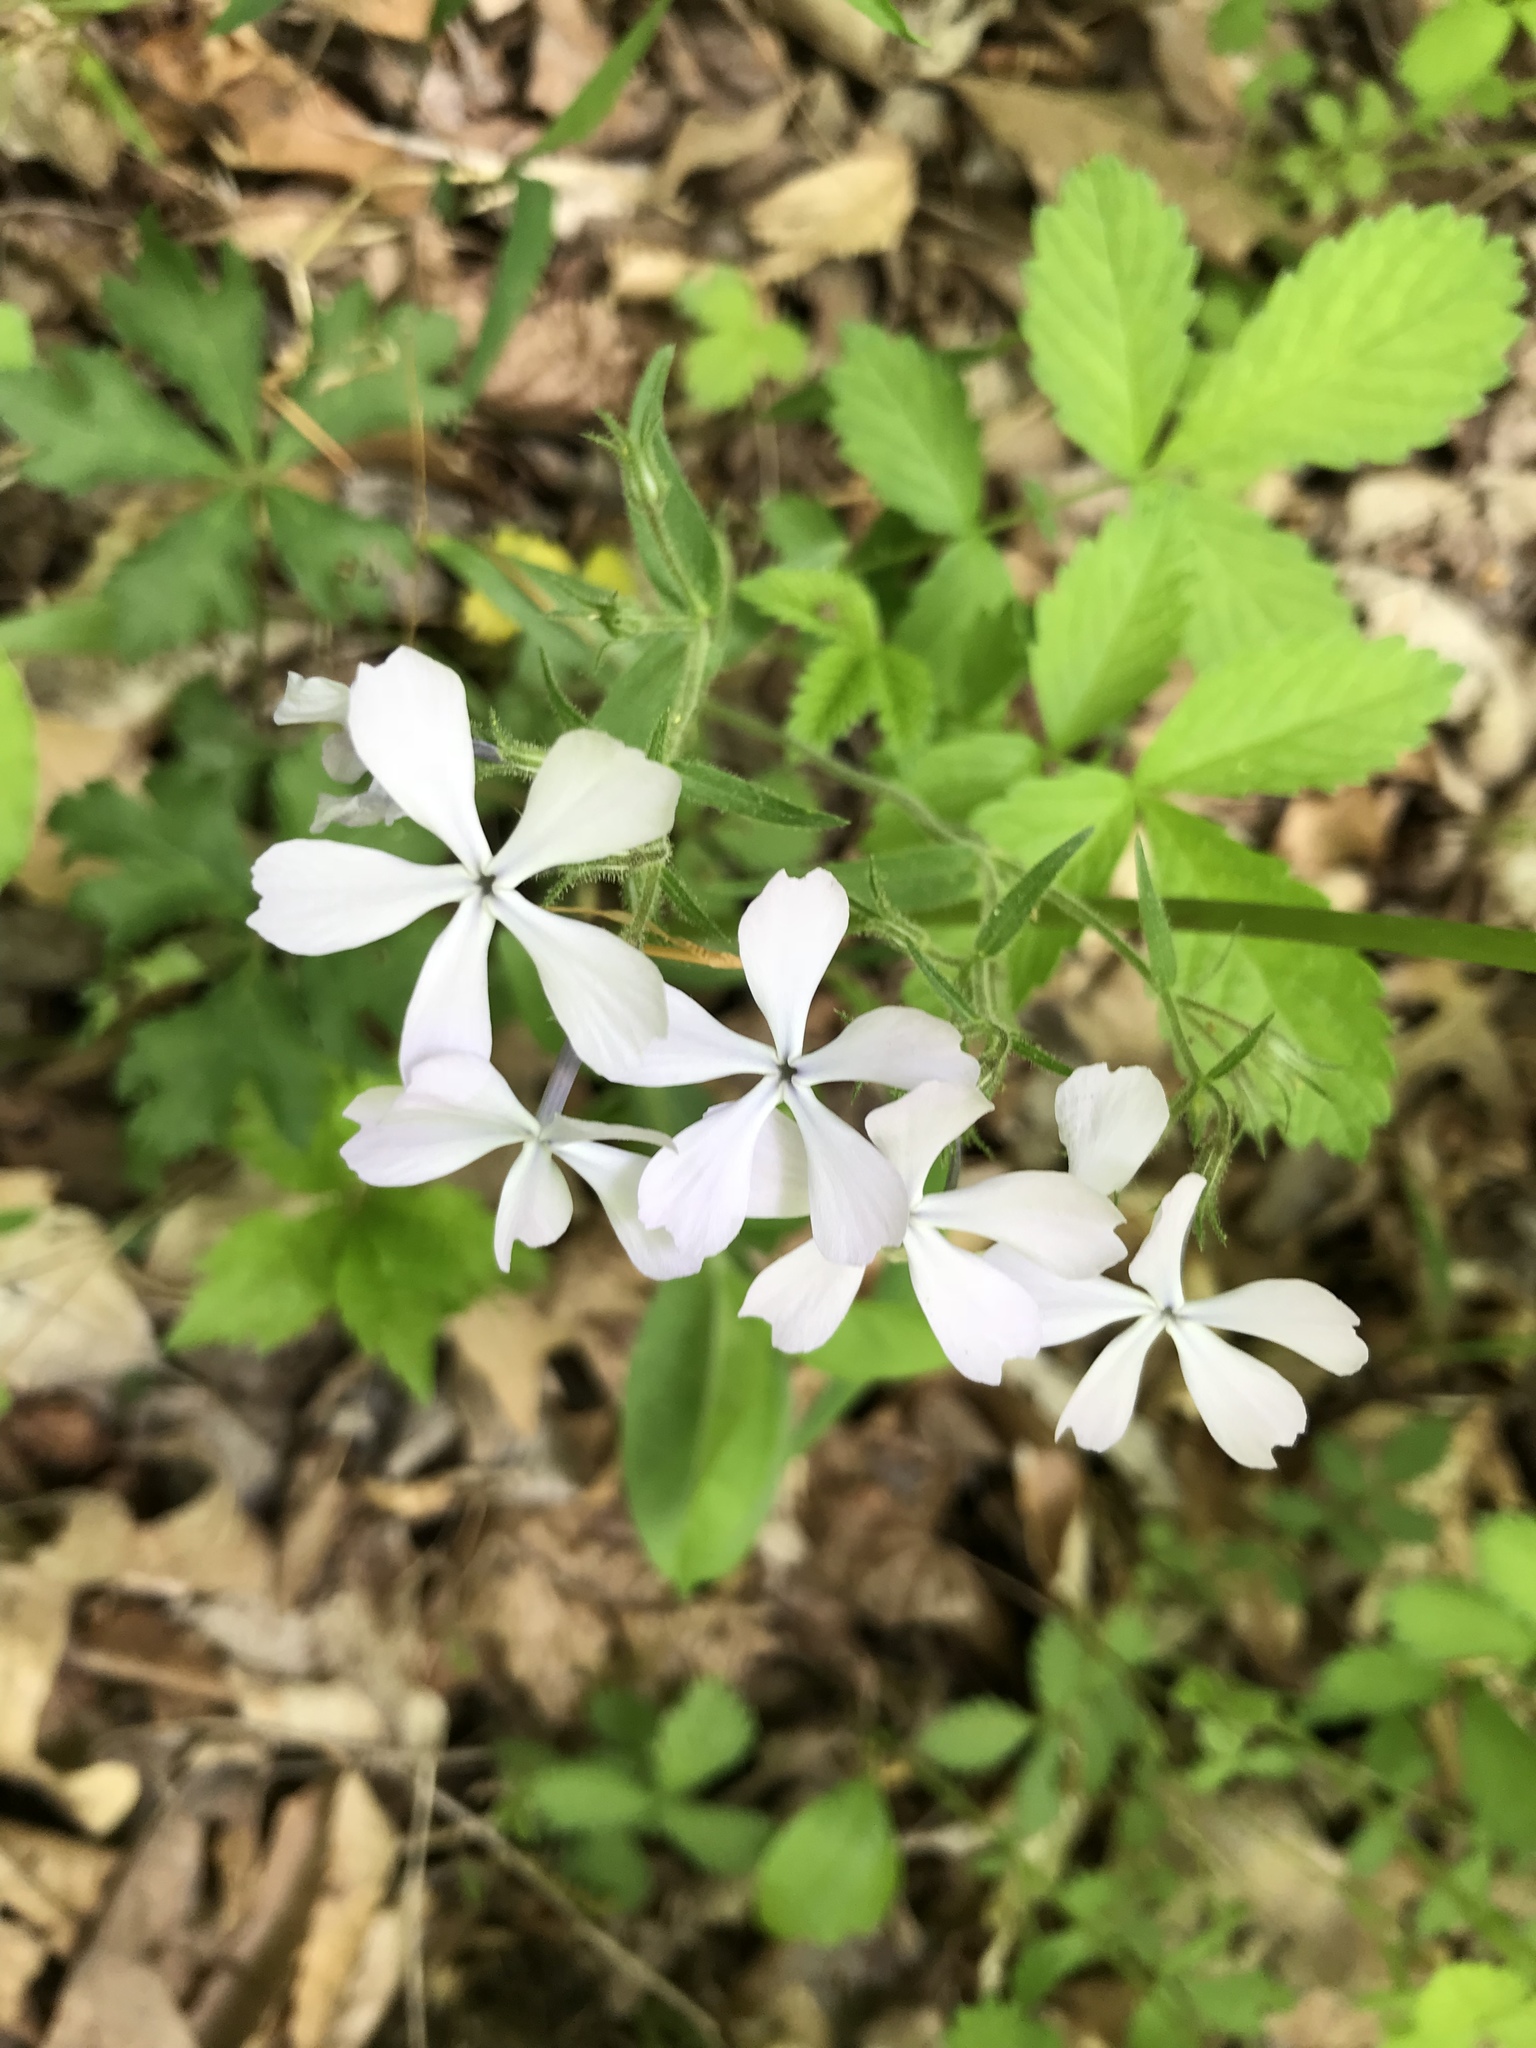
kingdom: Plantae
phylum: Tracheophyta
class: Magnoliopsida
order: Ericales
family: Polemoniaceae
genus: Phlox
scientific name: Phlox divaricata
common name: Blue phlox
